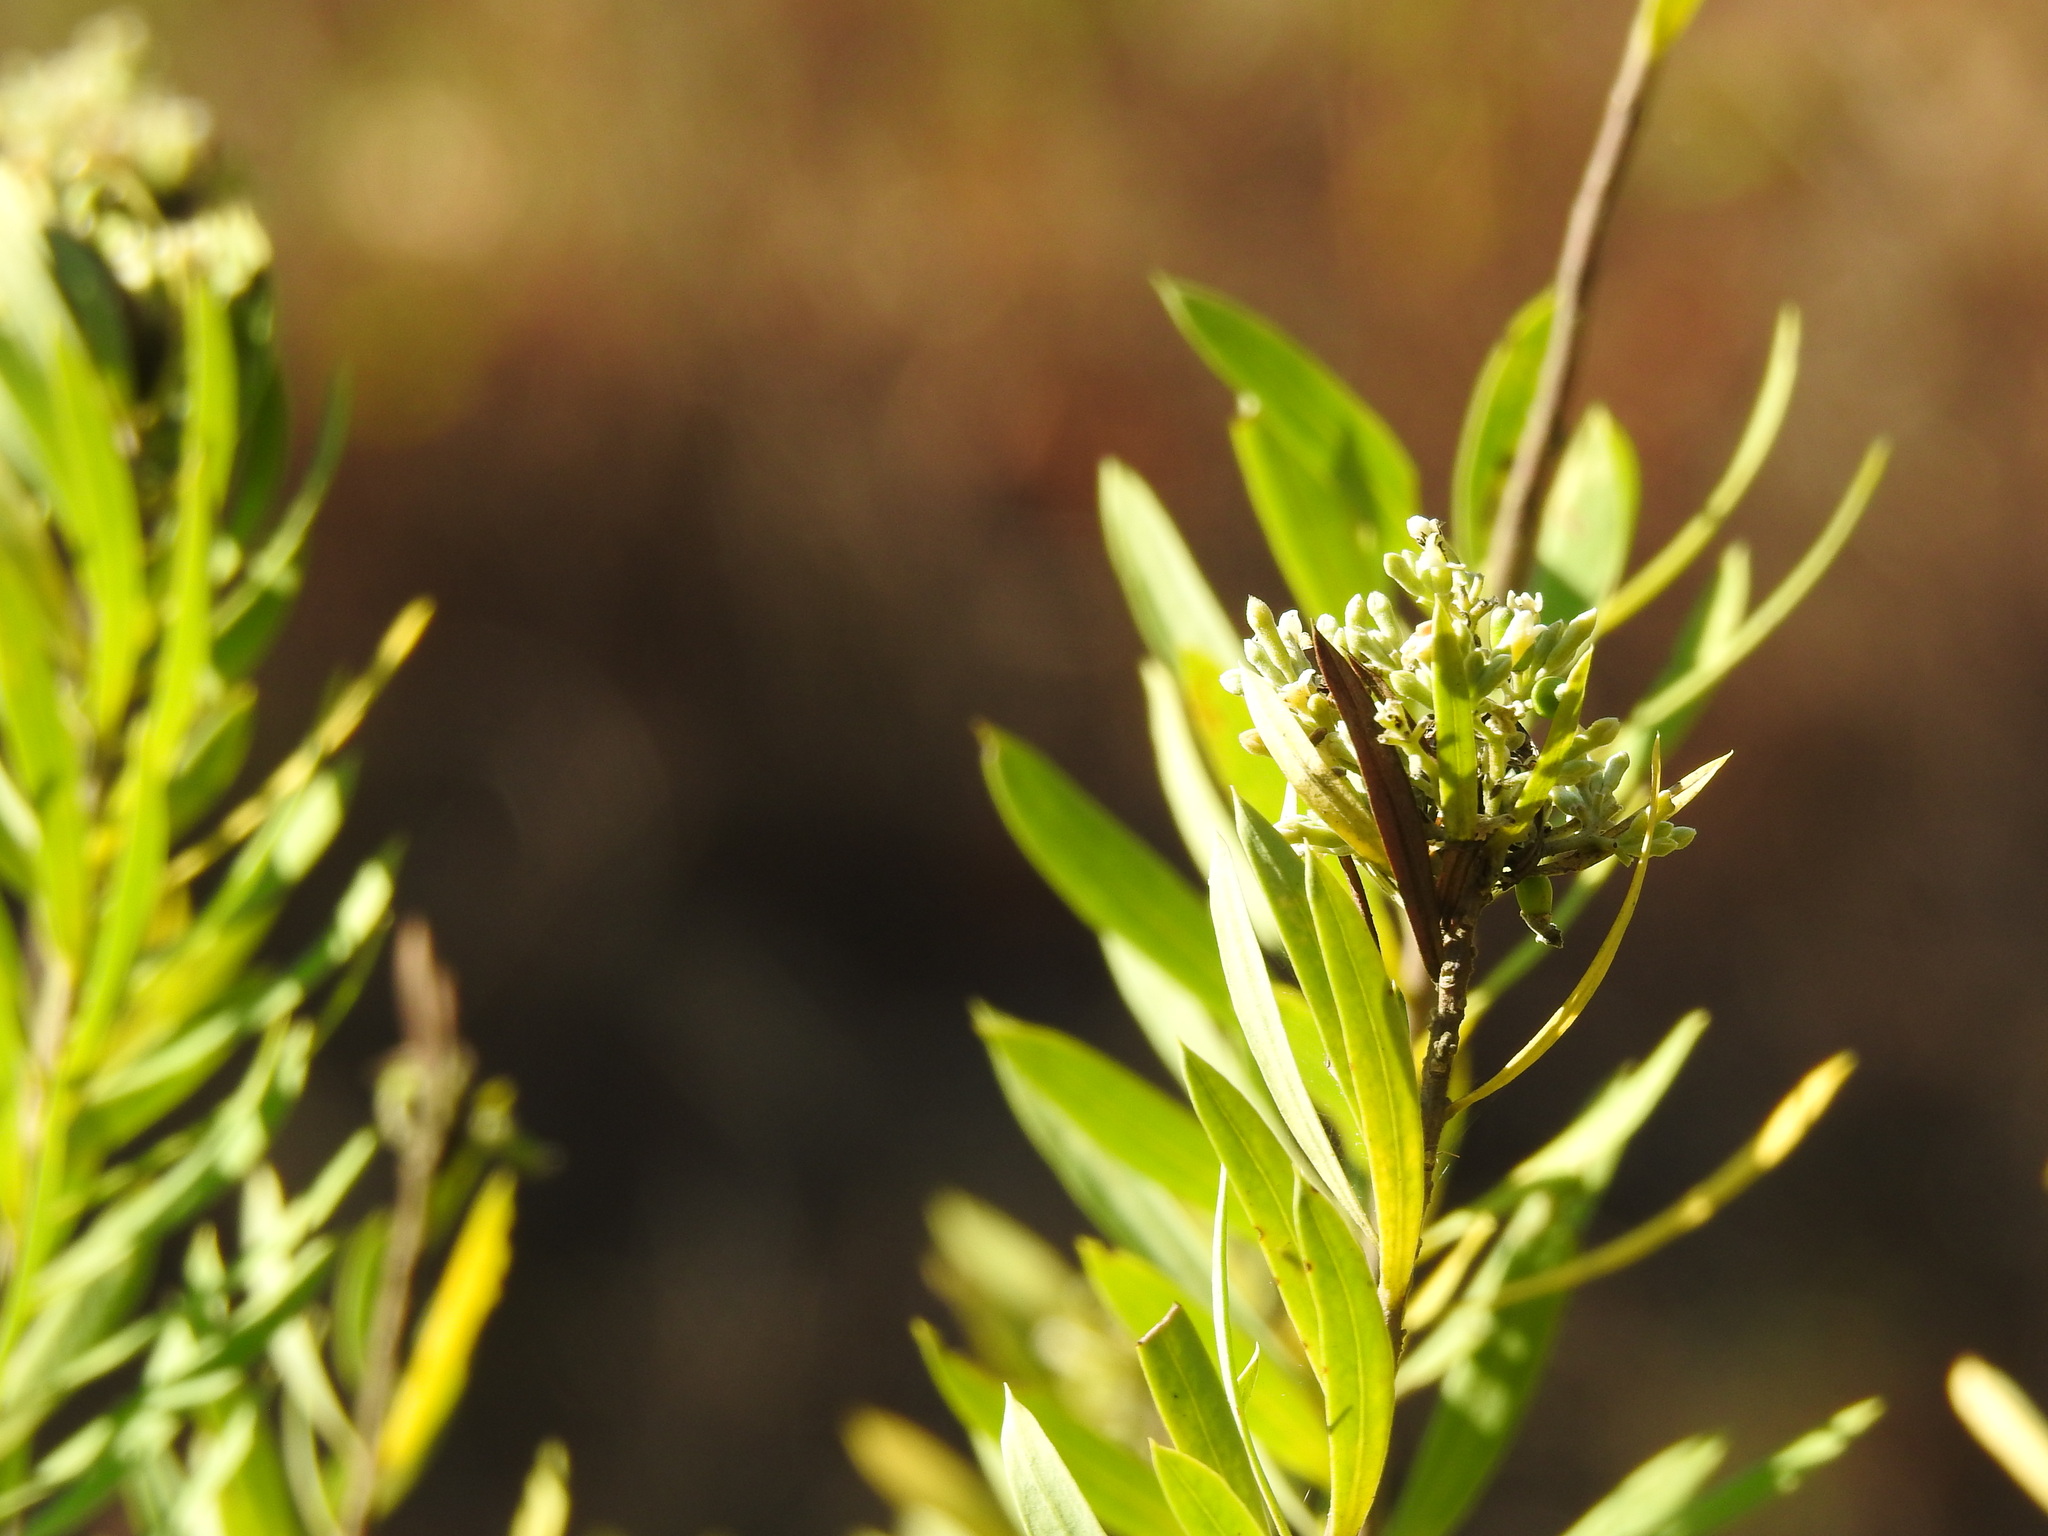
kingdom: Plantae
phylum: Tracheophyta
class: Magnoliopsida
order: Malvales
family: Thymelaeaceae
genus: Daphne
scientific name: Daphne gnidium
